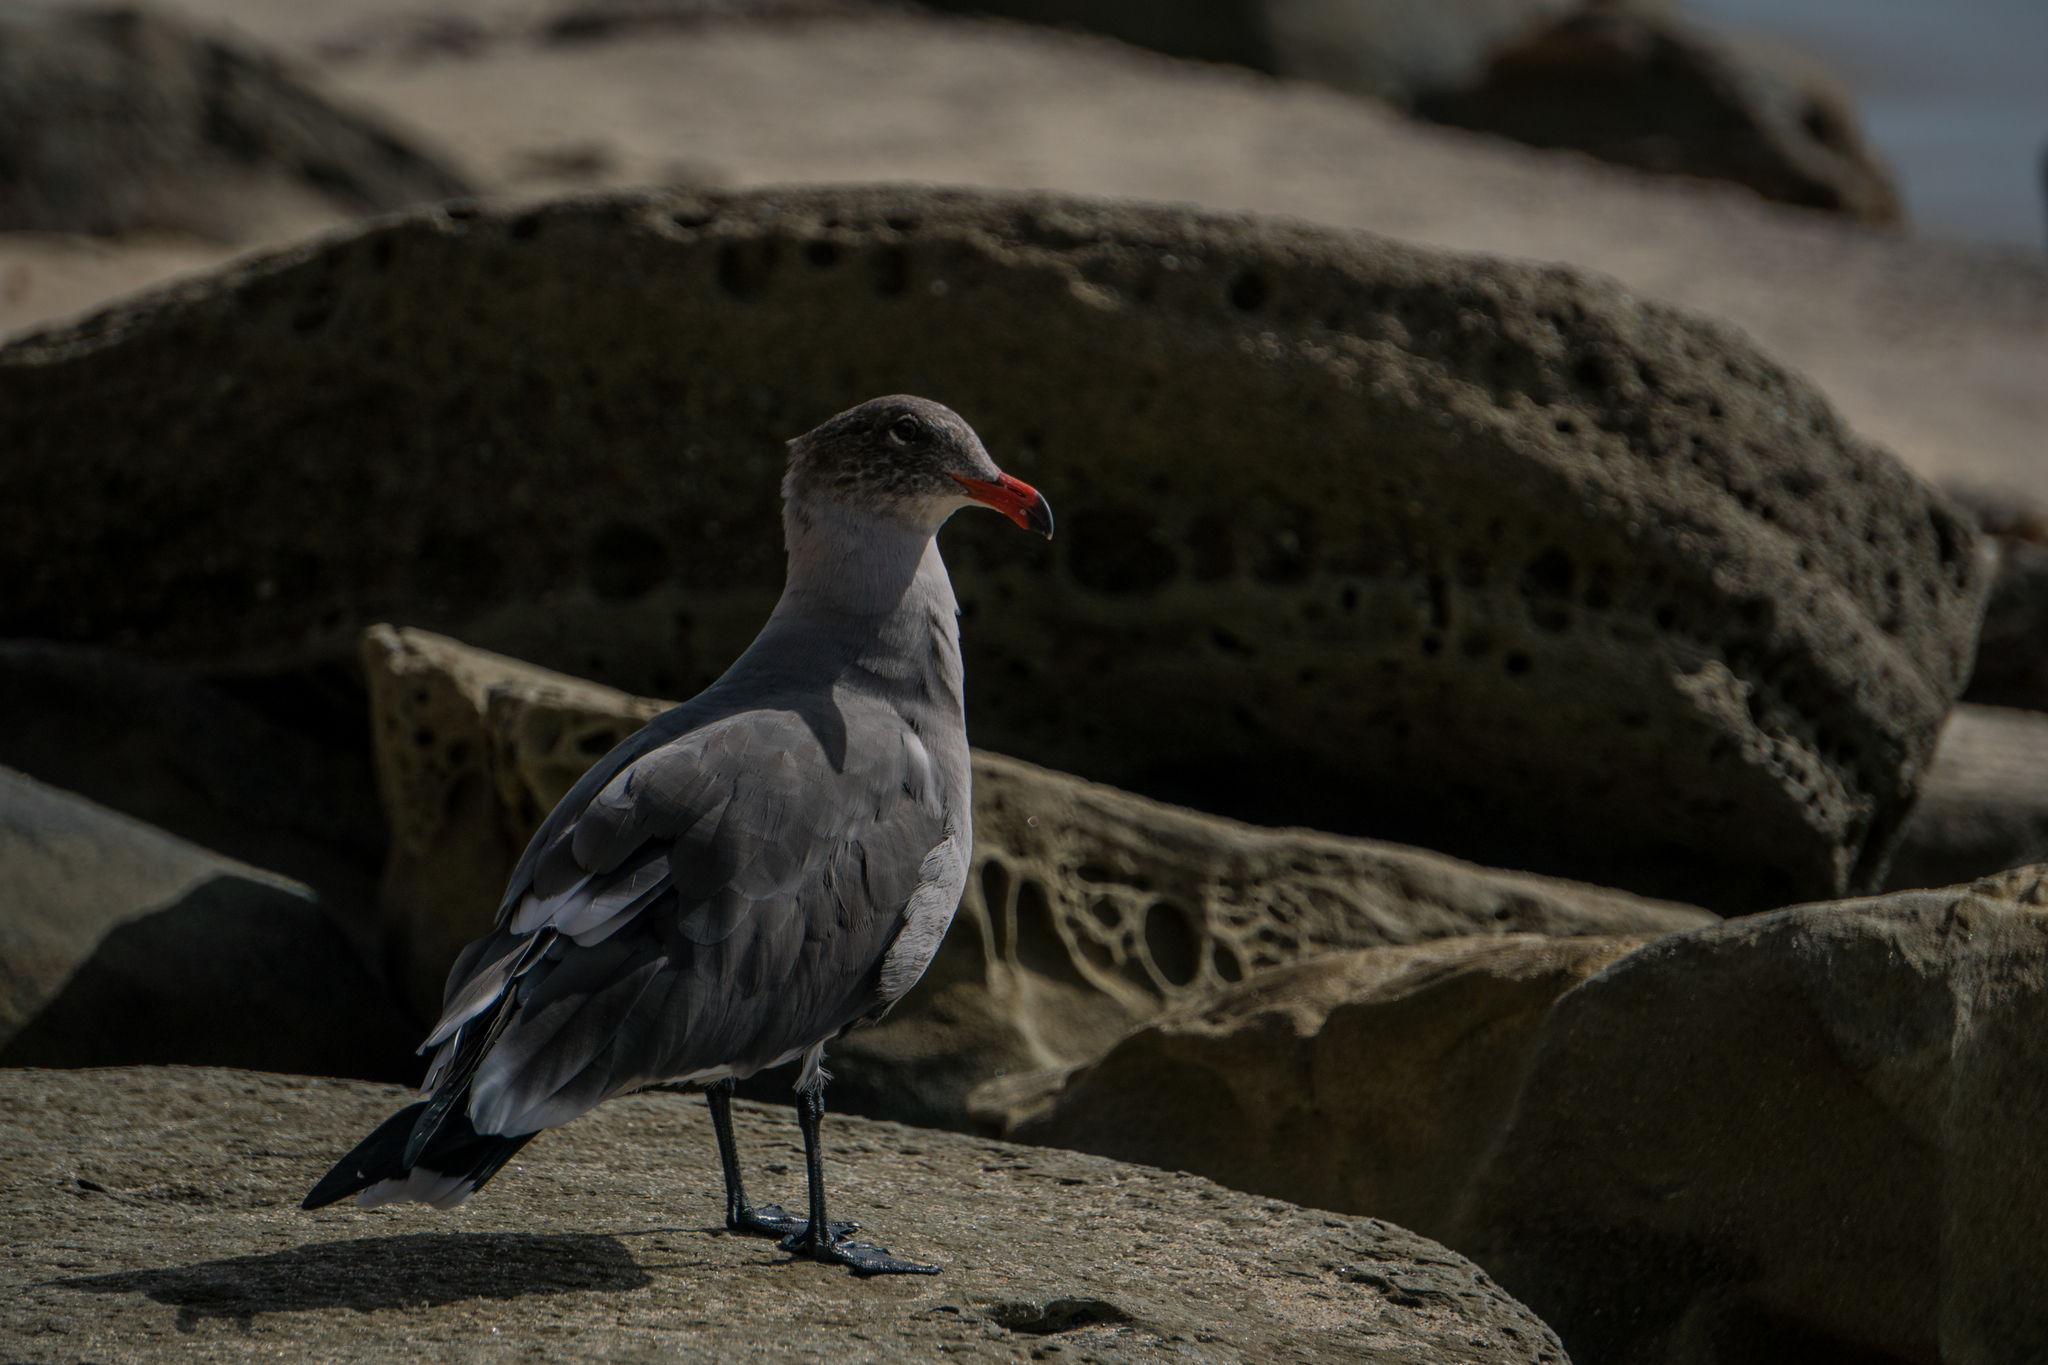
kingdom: Animalia
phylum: Chordata
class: Aves
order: Charadriiformes
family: Laridae
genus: Larus
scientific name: Larus heermanni
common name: Heermann's gull
